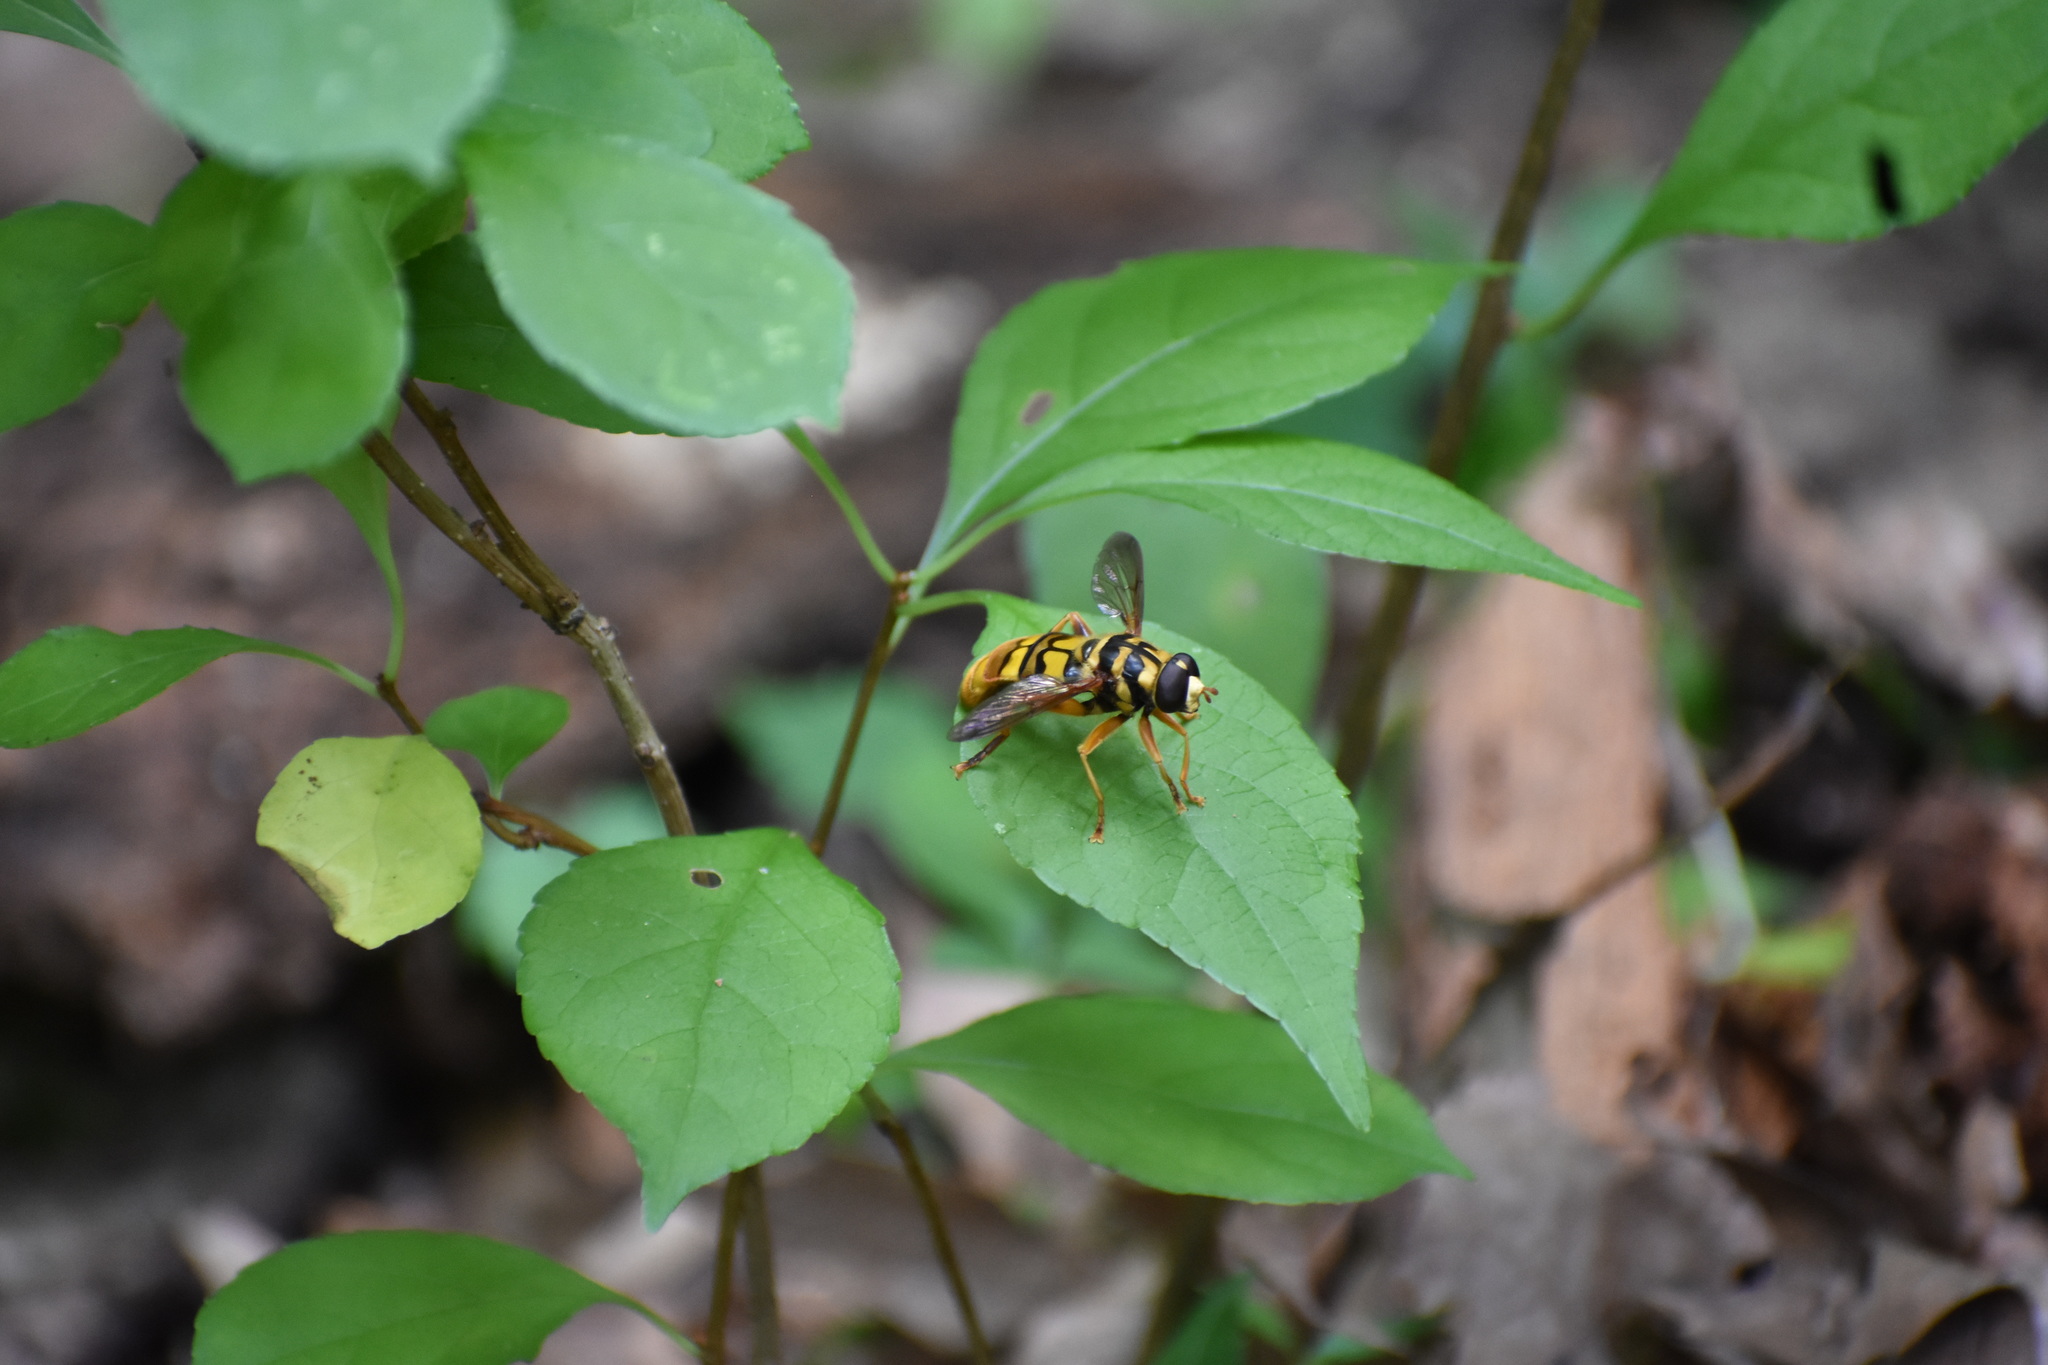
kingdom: Animalia
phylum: Arthropoda
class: Insecta
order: Diptera
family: Syrphidae
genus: Milesia
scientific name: Milesia virginiensis
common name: Virginia giant
